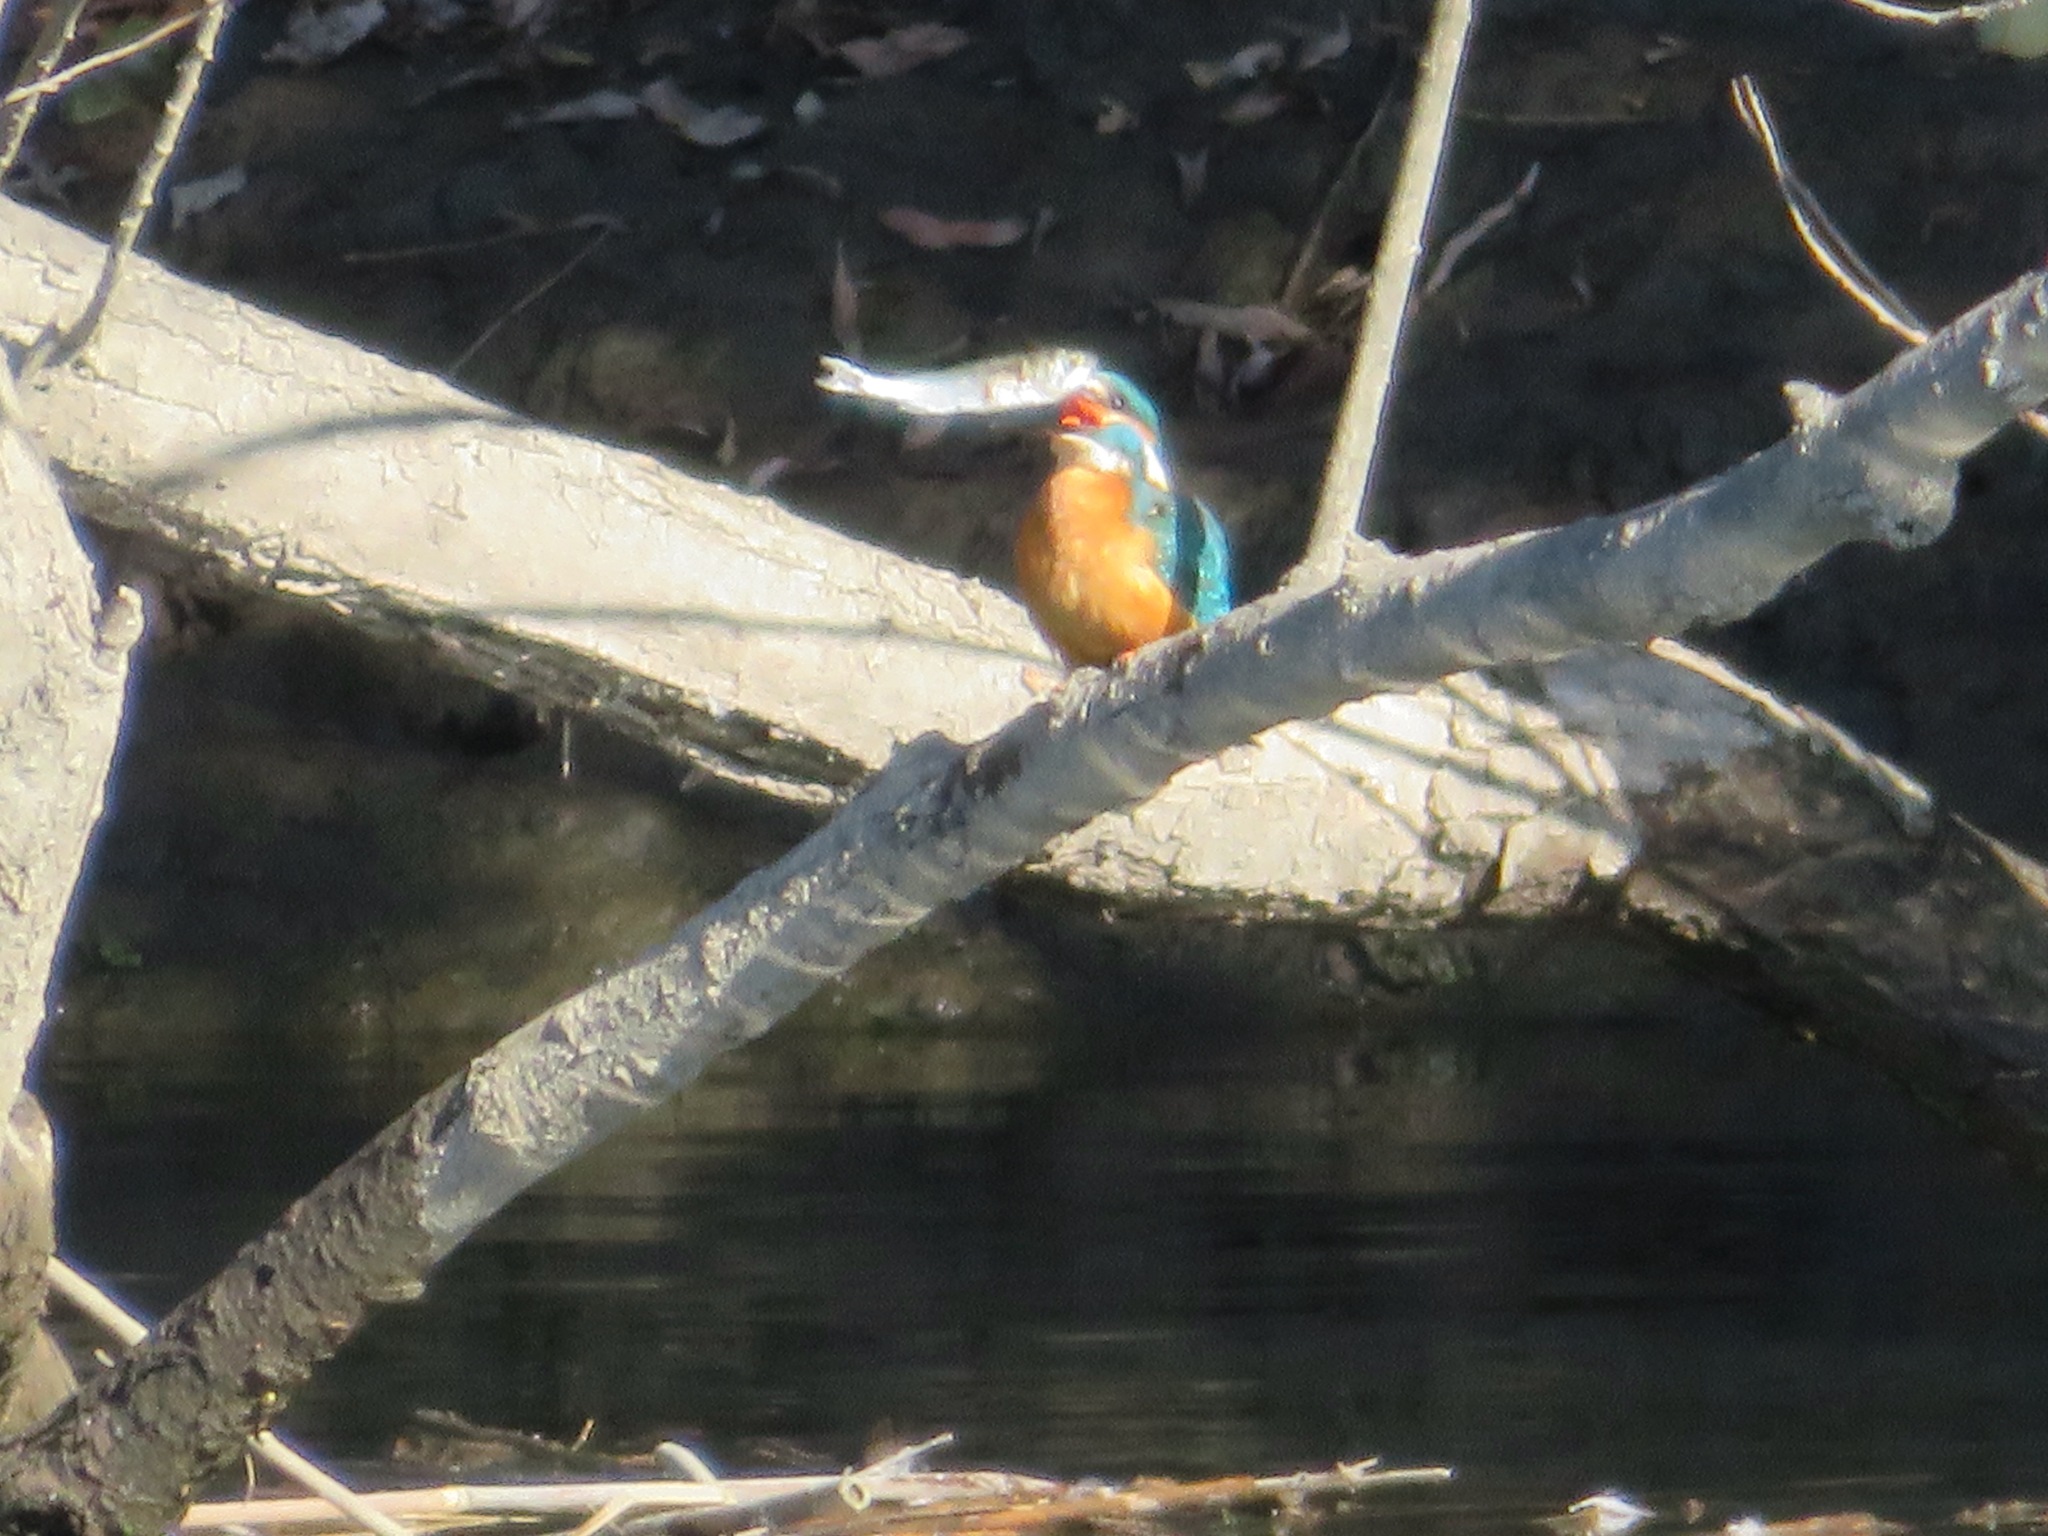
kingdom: Animalia
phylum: Chordata
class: Aves
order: Coraciiformes
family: Alcedinidae
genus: Alcedo
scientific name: Alcedo atthis
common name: Common kingfisher
